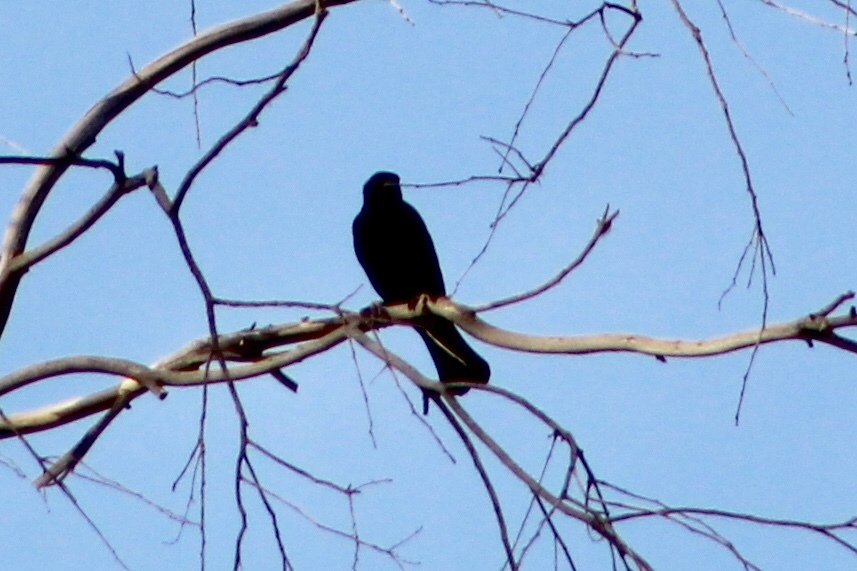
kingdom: Animalia
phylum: Chordata
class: Aves
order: Passeriformes
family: Icteridae
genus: Agelaius
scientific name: Agelaius phoeniceus
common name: Red-winged blackbird
